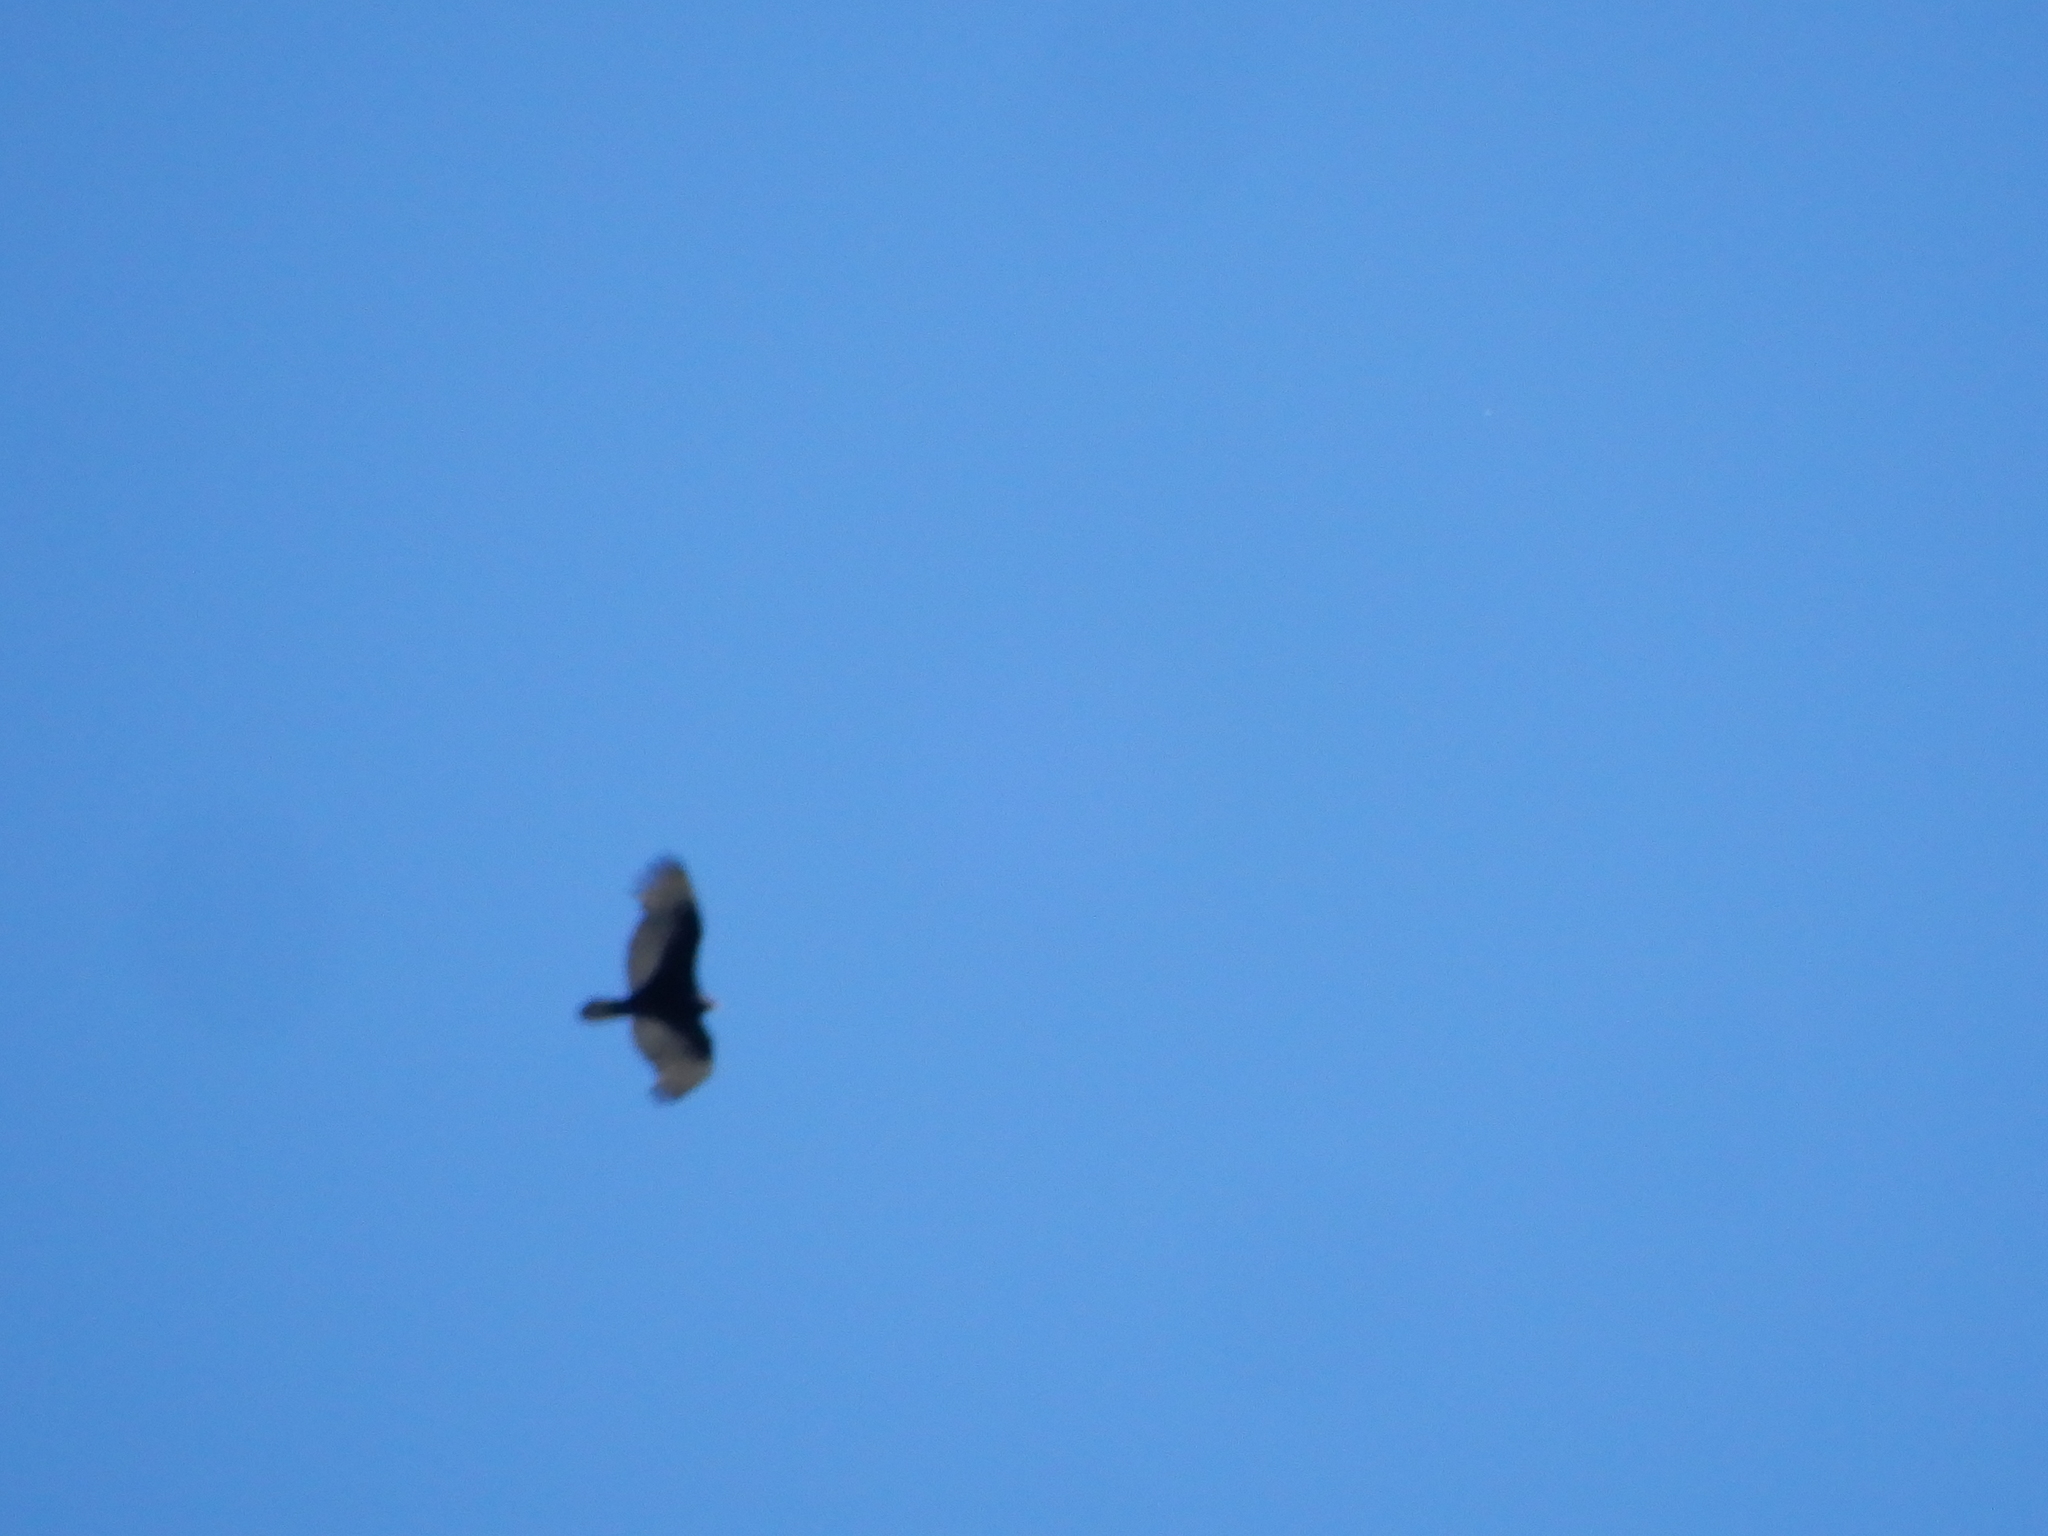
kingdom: Animalia
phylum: Chordata
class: Aves
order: Accipitriformes
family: Cathartidae
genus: Cathartes
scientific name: Cathartes aura
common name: Turkey vulture
